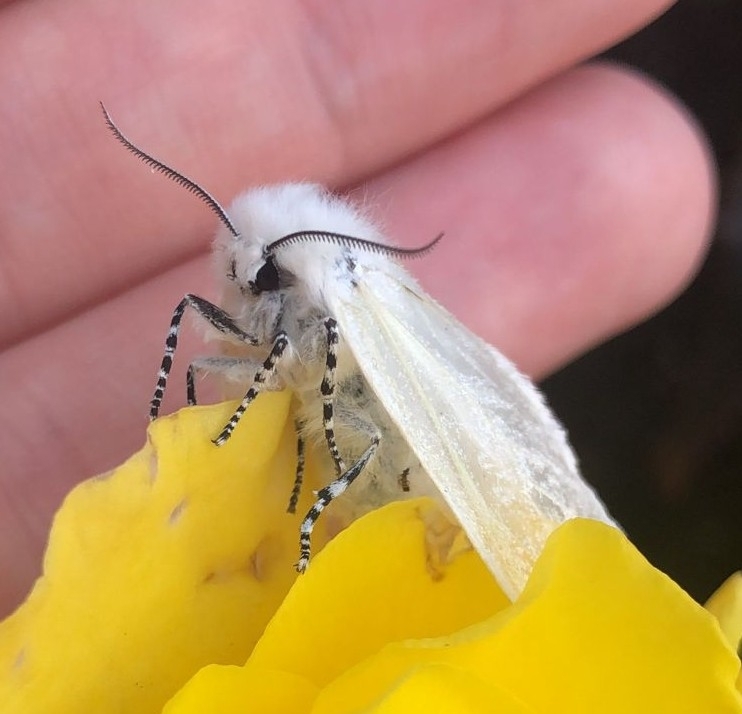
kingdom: Animalia
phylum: Arthropoda
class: Insecta
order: Lepidoptera
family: Erebidae
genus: Leucoma
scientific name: Leucoma salicis
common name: White satin moth
